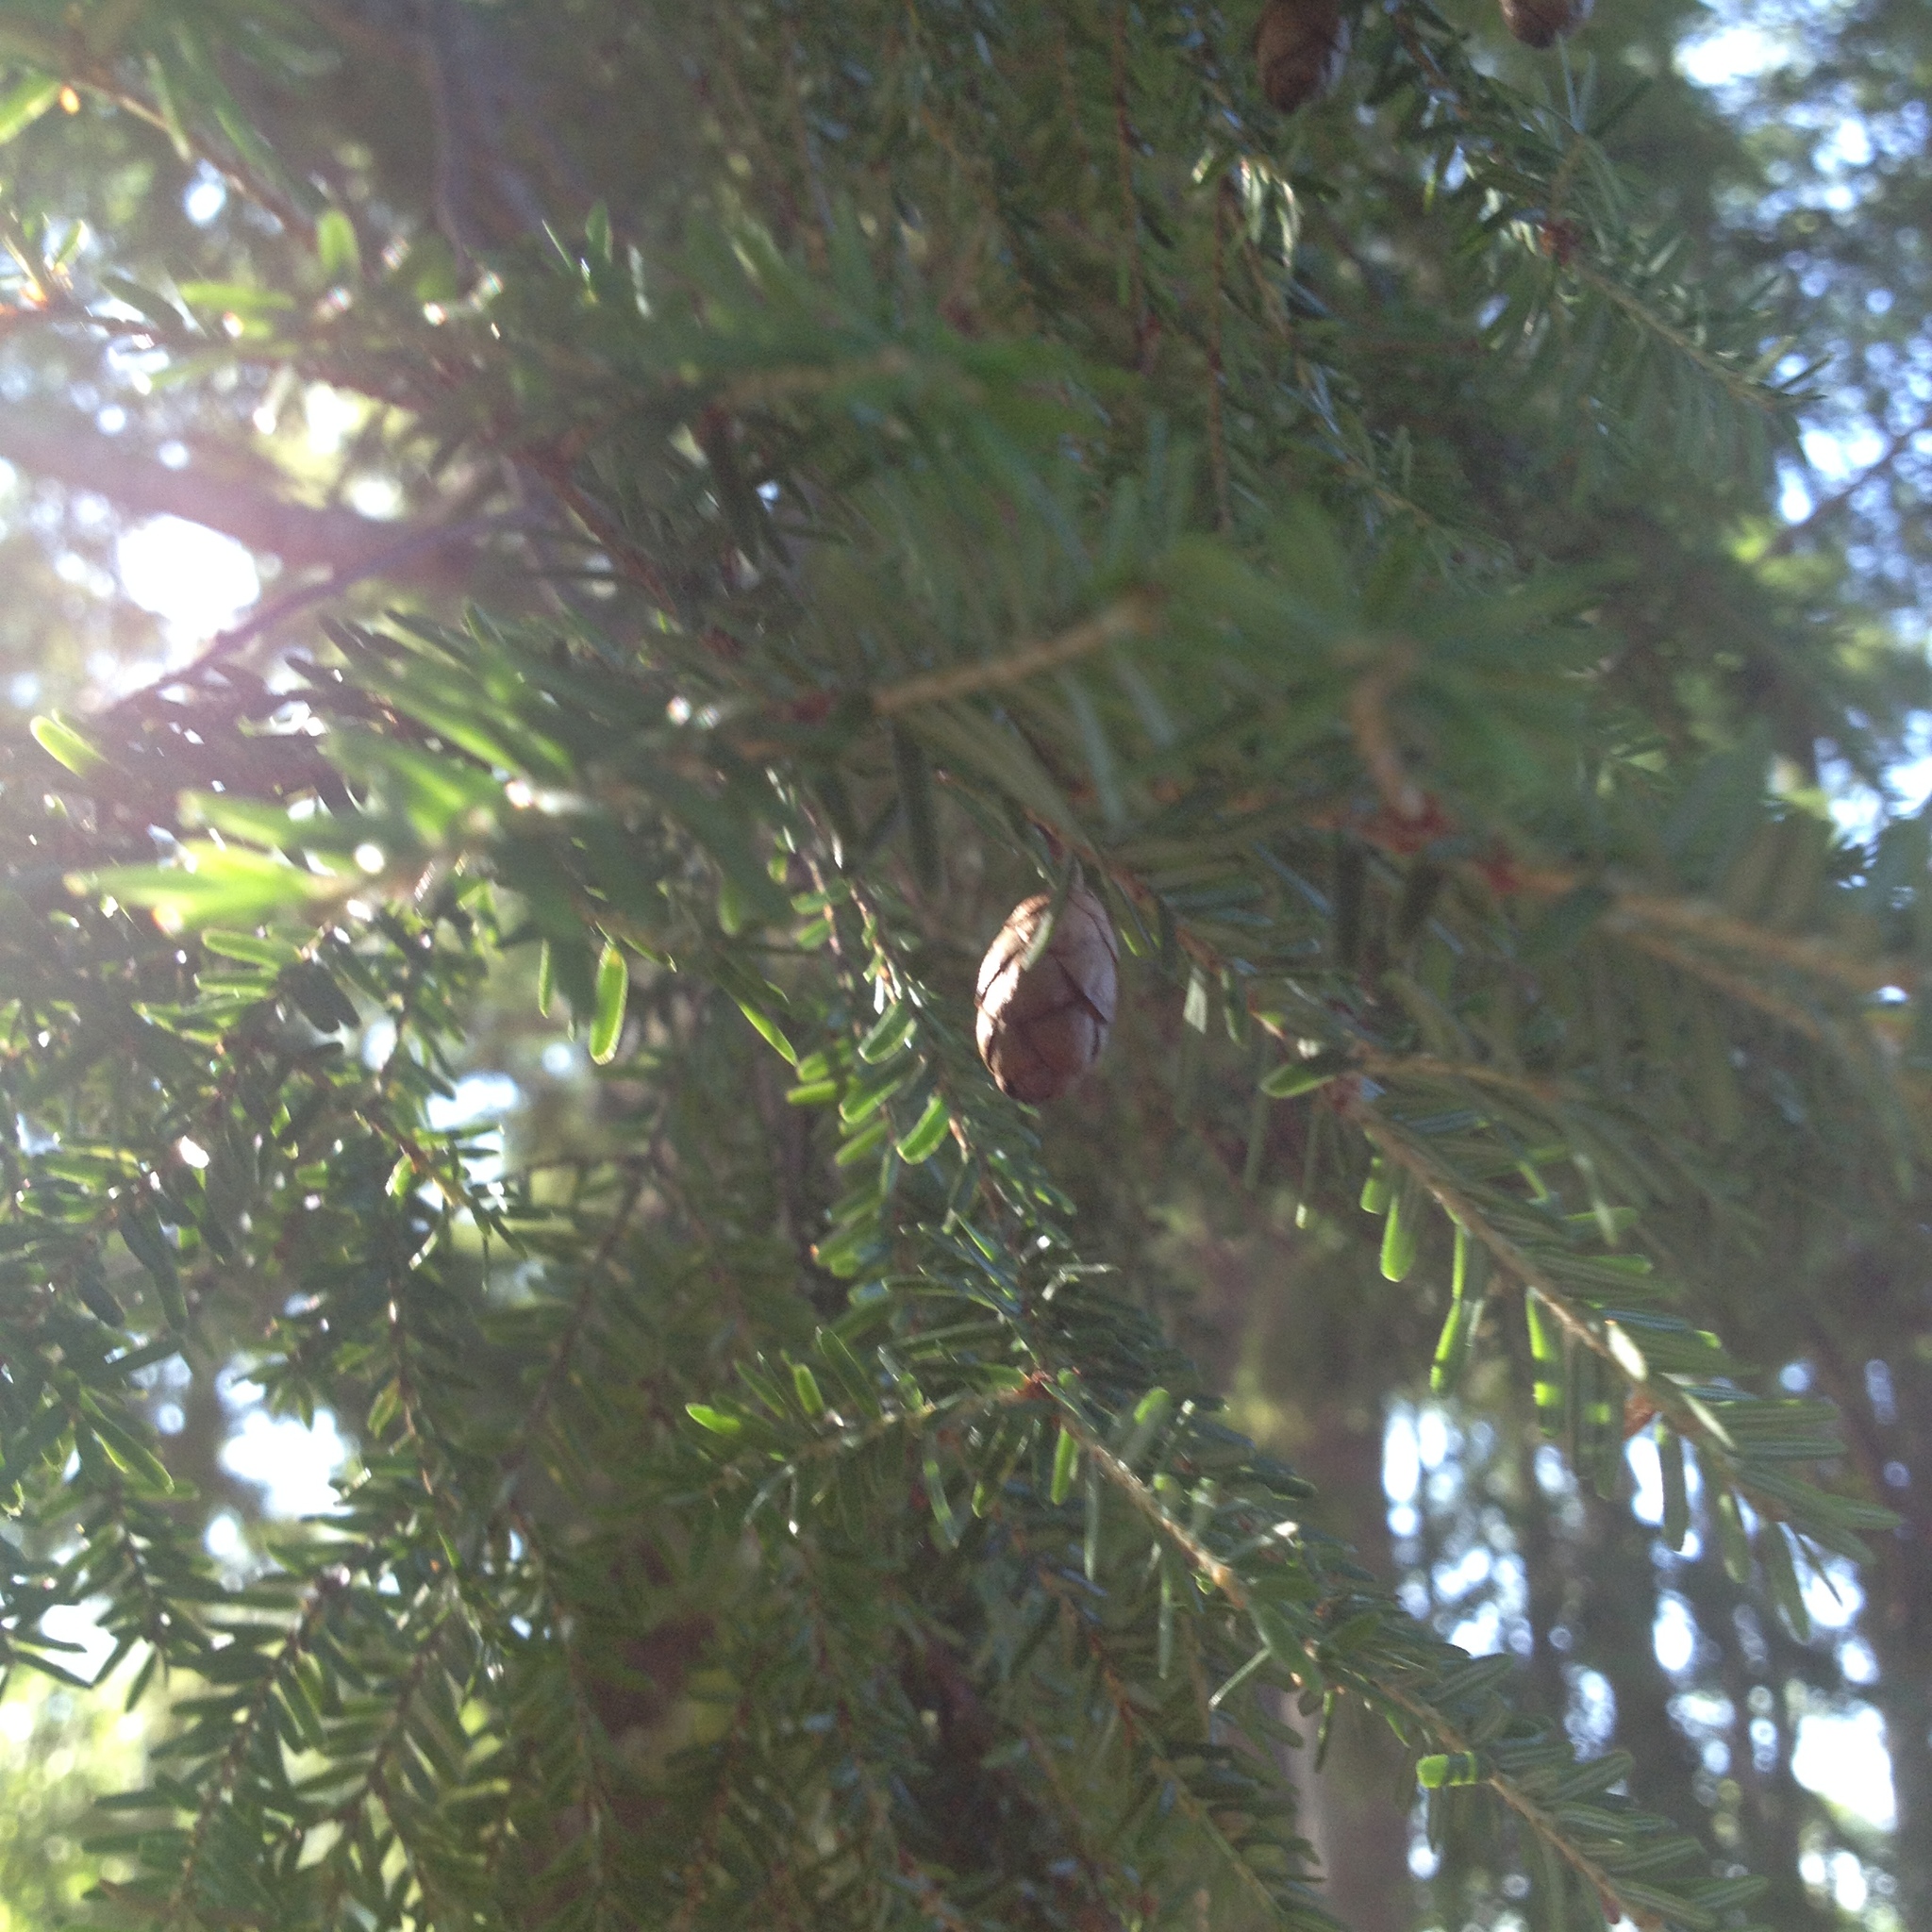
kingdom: Plantae
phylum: Tracheophyta
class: Pinopsida
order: Pinales
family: Pinaceae
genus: Tsuga
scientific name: Tsuga canadensis
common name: Eastern hemlock
